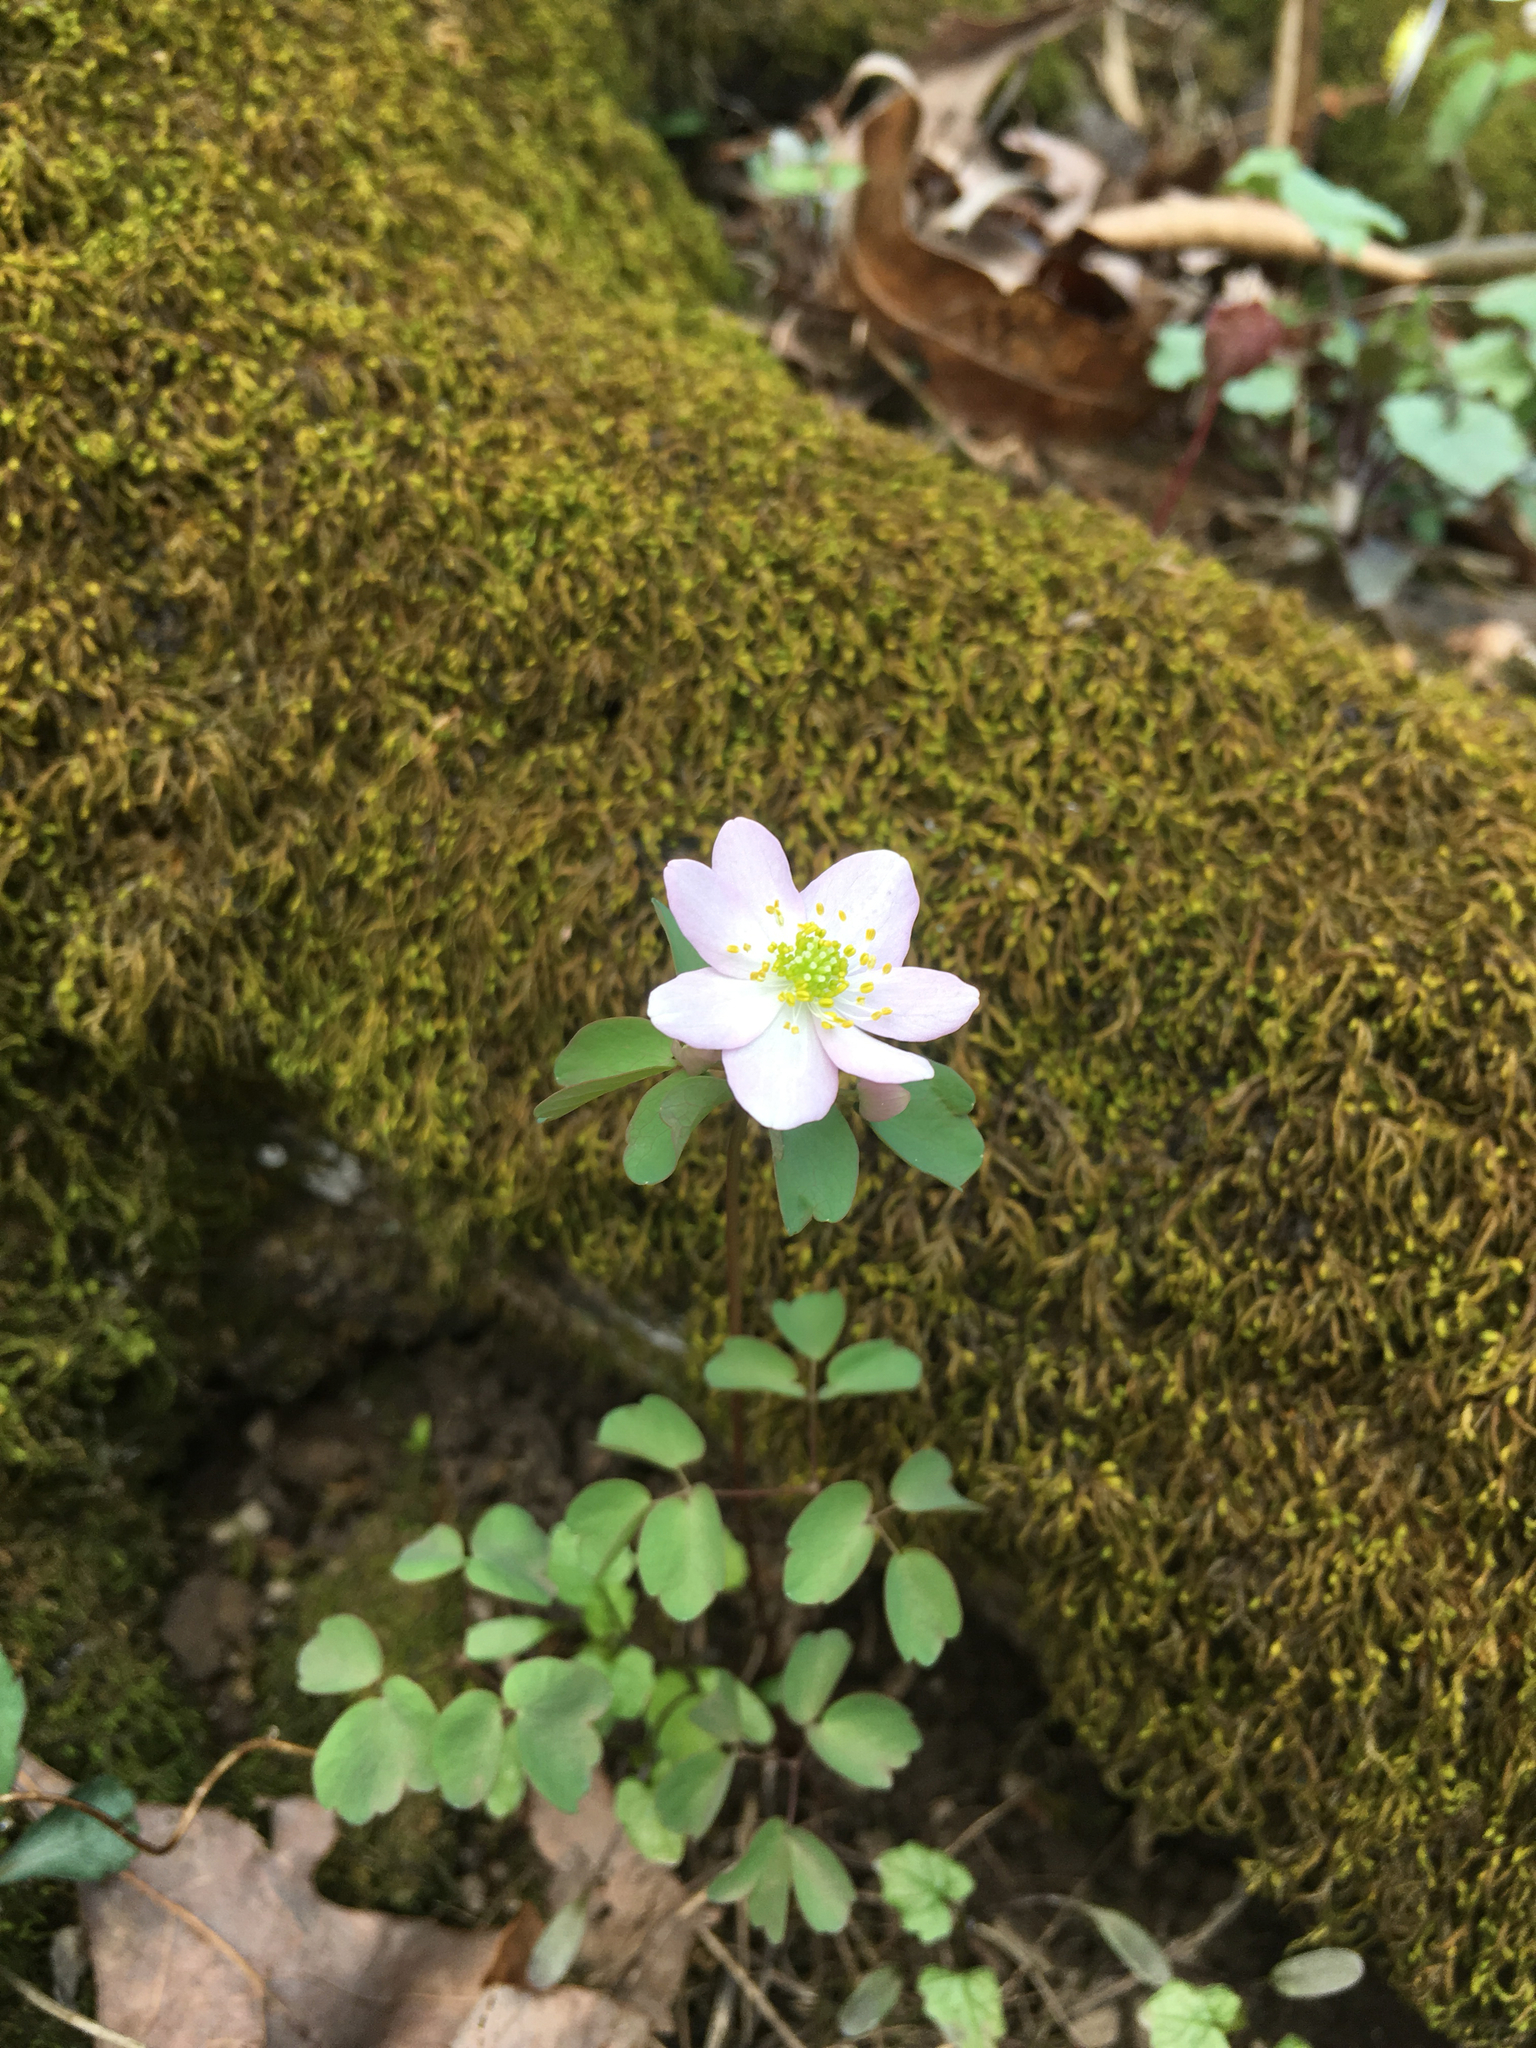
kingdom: Plantae
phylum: Tracheophyta
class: Magnoliopsida
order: Ranunculales
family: Ranunculaceae
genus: Thalictrum
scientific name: Thalictrum thalictroides
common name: Rue-anemone
